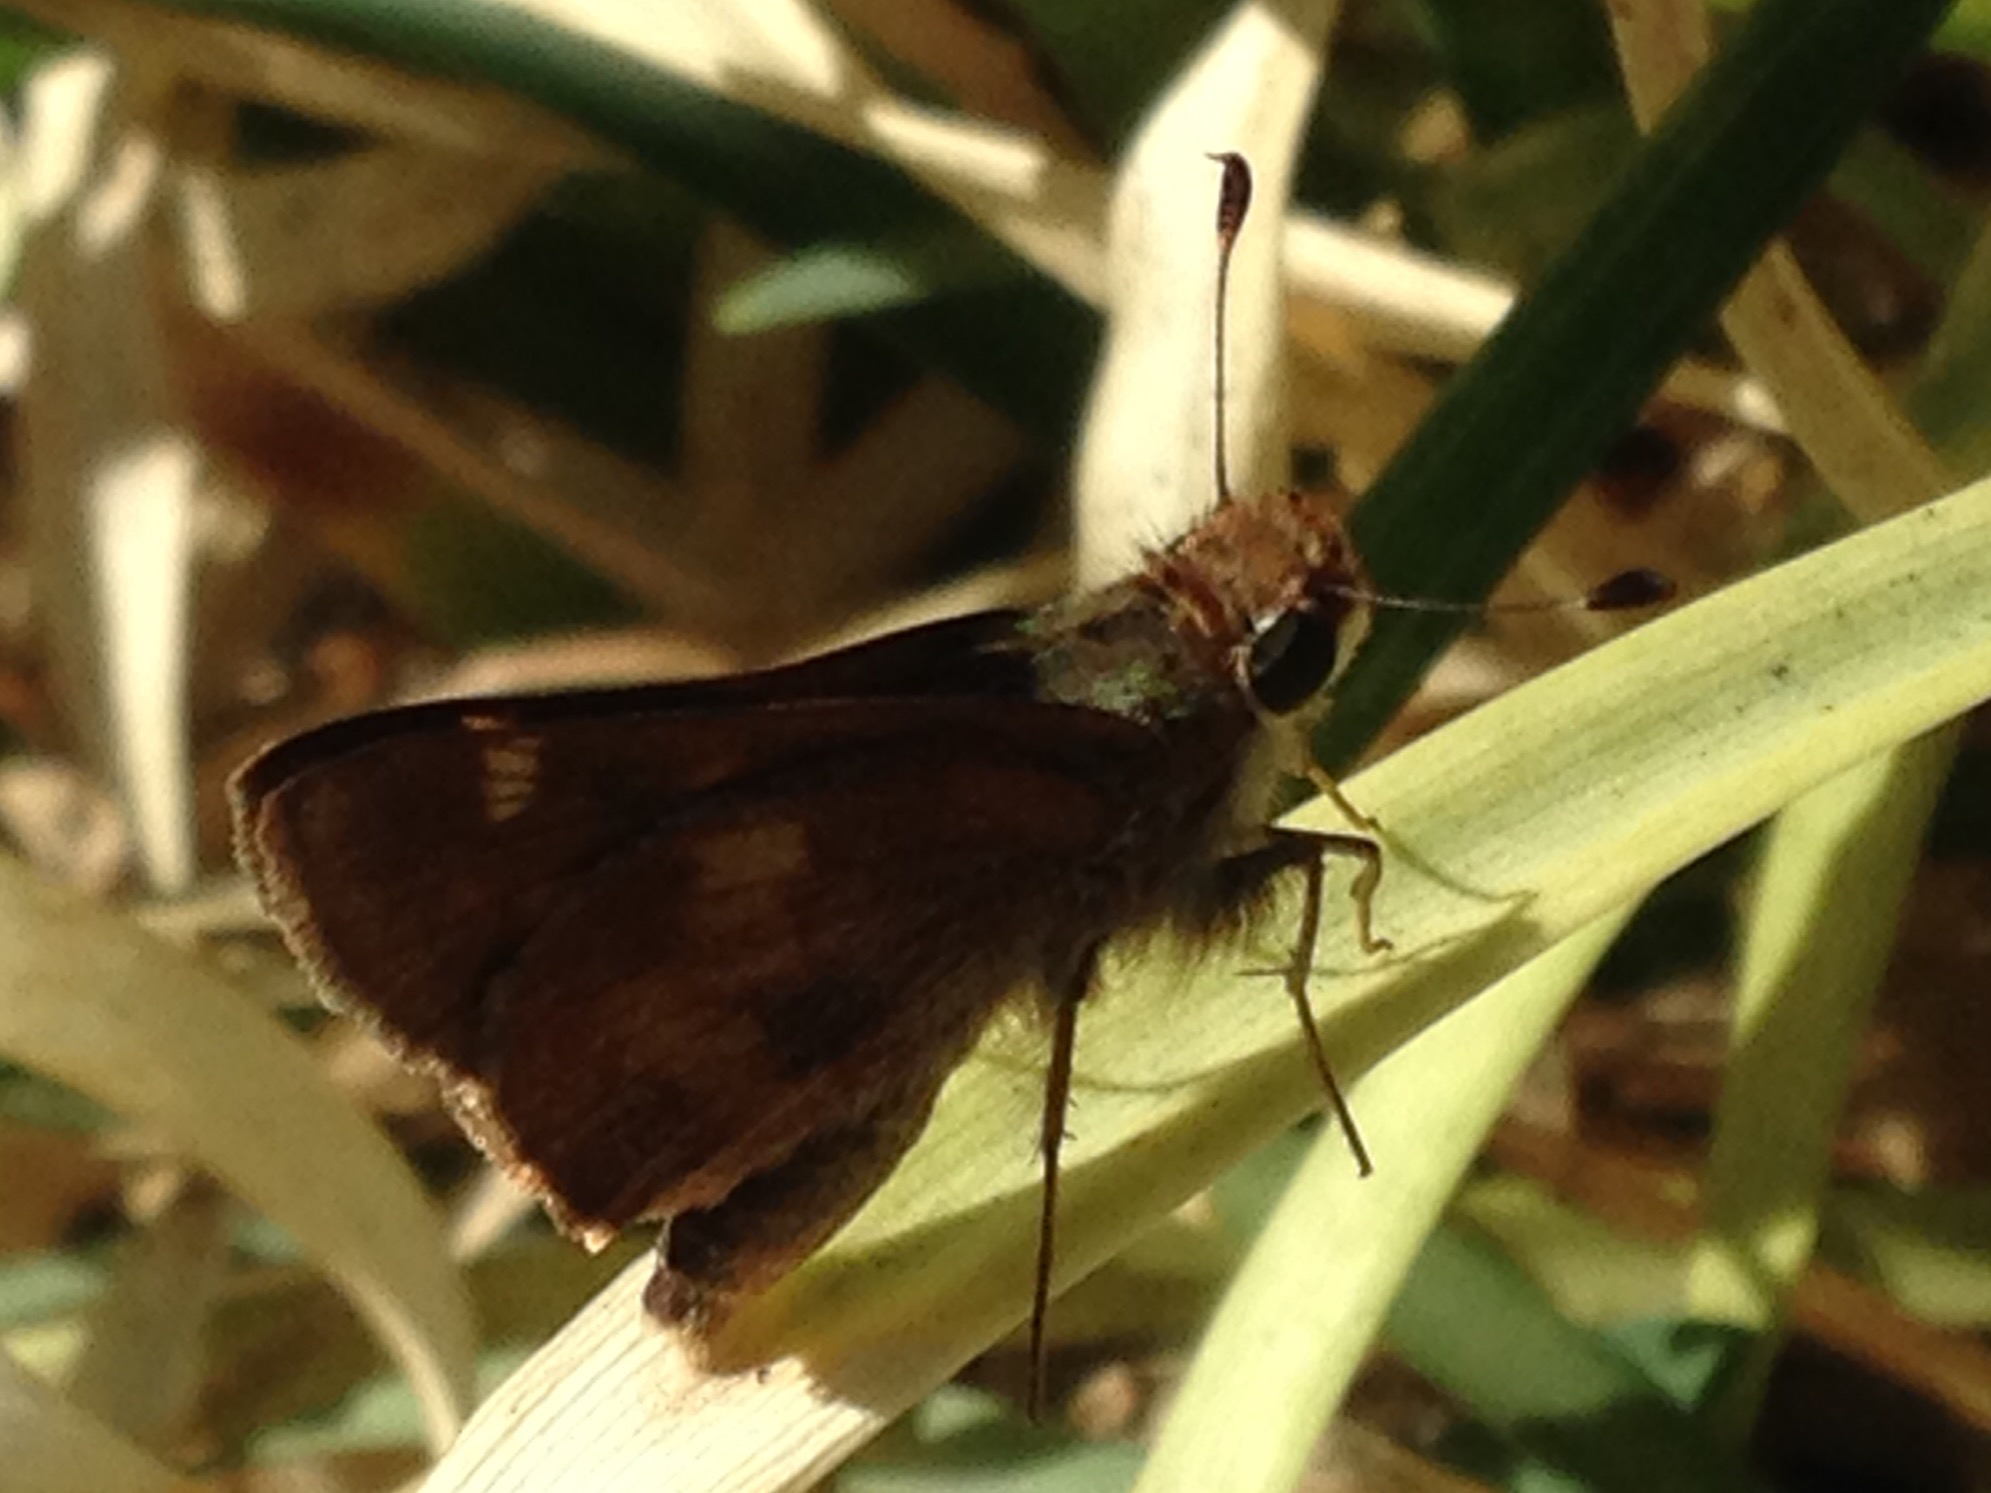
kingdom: Animalia
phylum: Arthropoda
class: Insecta
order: Lepidoptera
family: Hesperiidae
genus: Lon
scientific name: Lon melane
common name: Umber skipper
